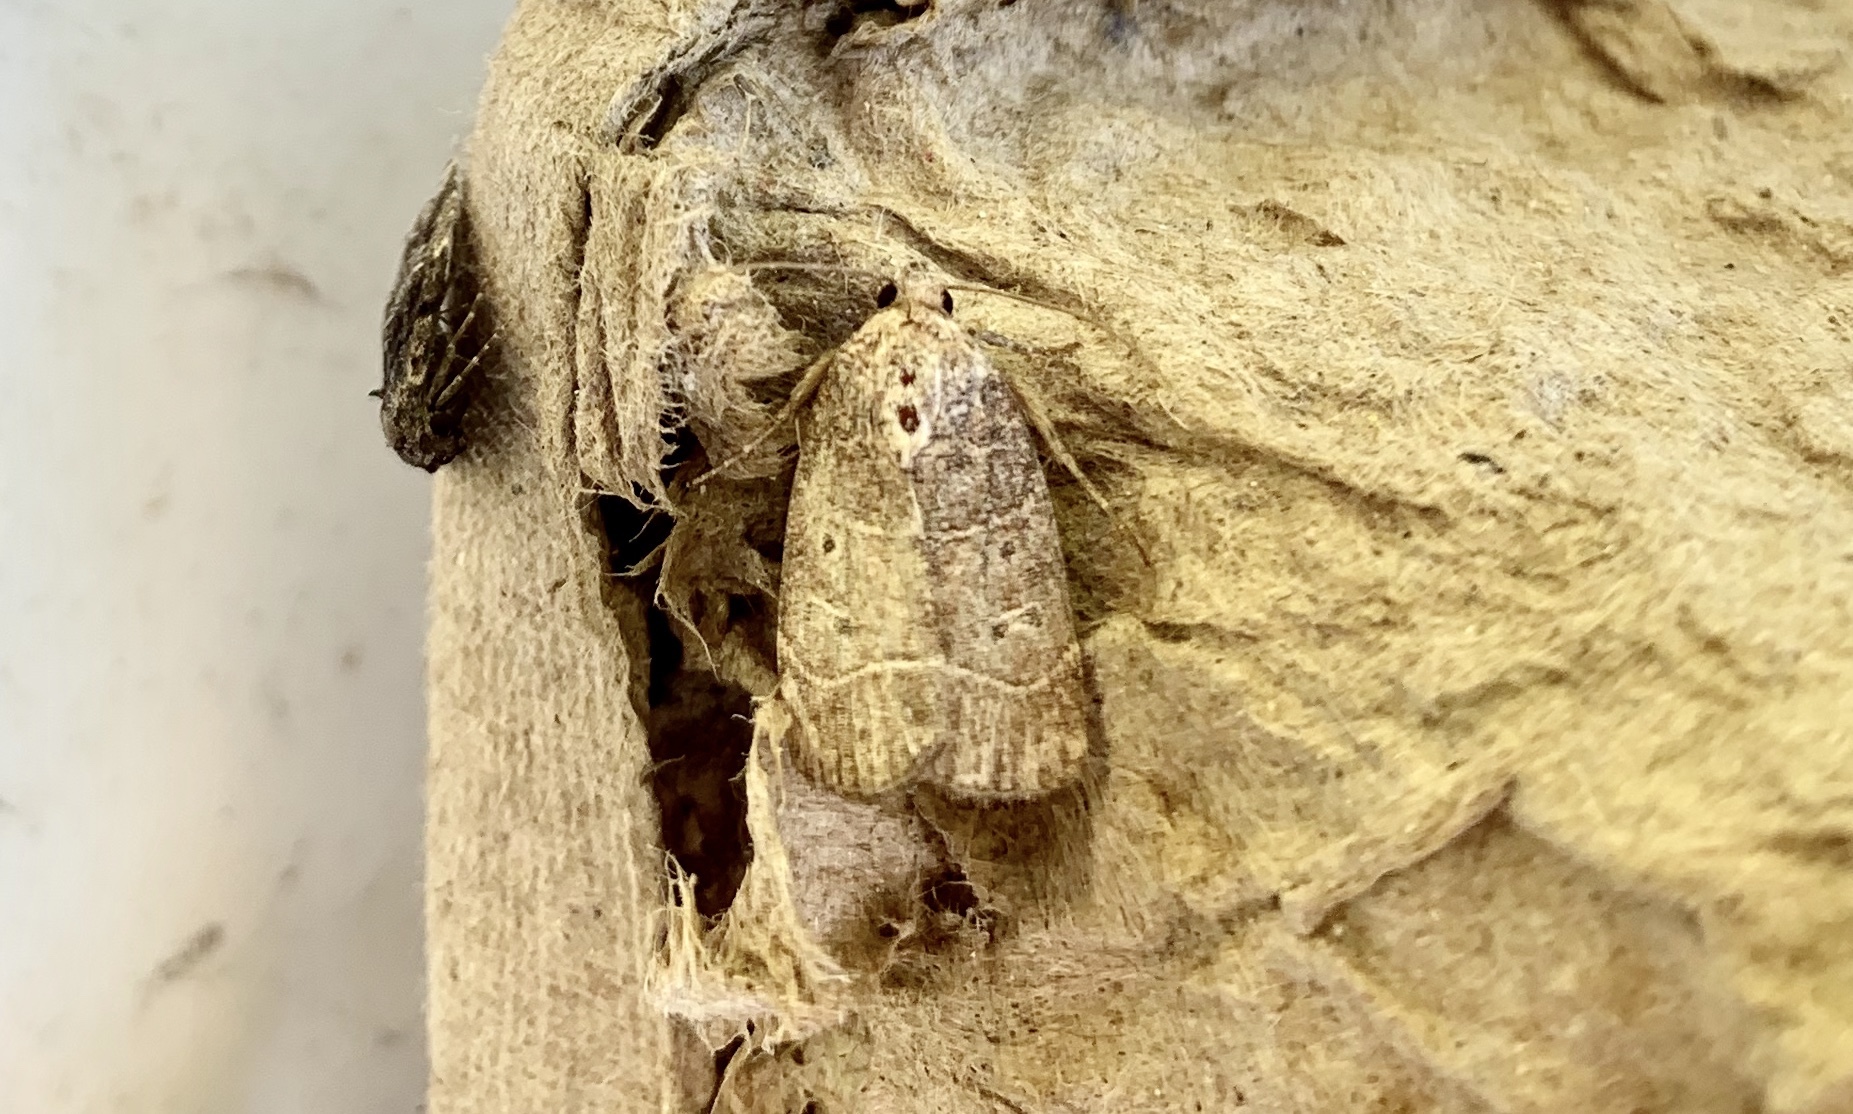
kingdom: Animalia
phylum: Arthropoda
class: Insecta
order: Lepidoptera
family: Noctuidae
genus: Elaphria
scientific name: Elaphria grata
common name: Grateful midget moth
